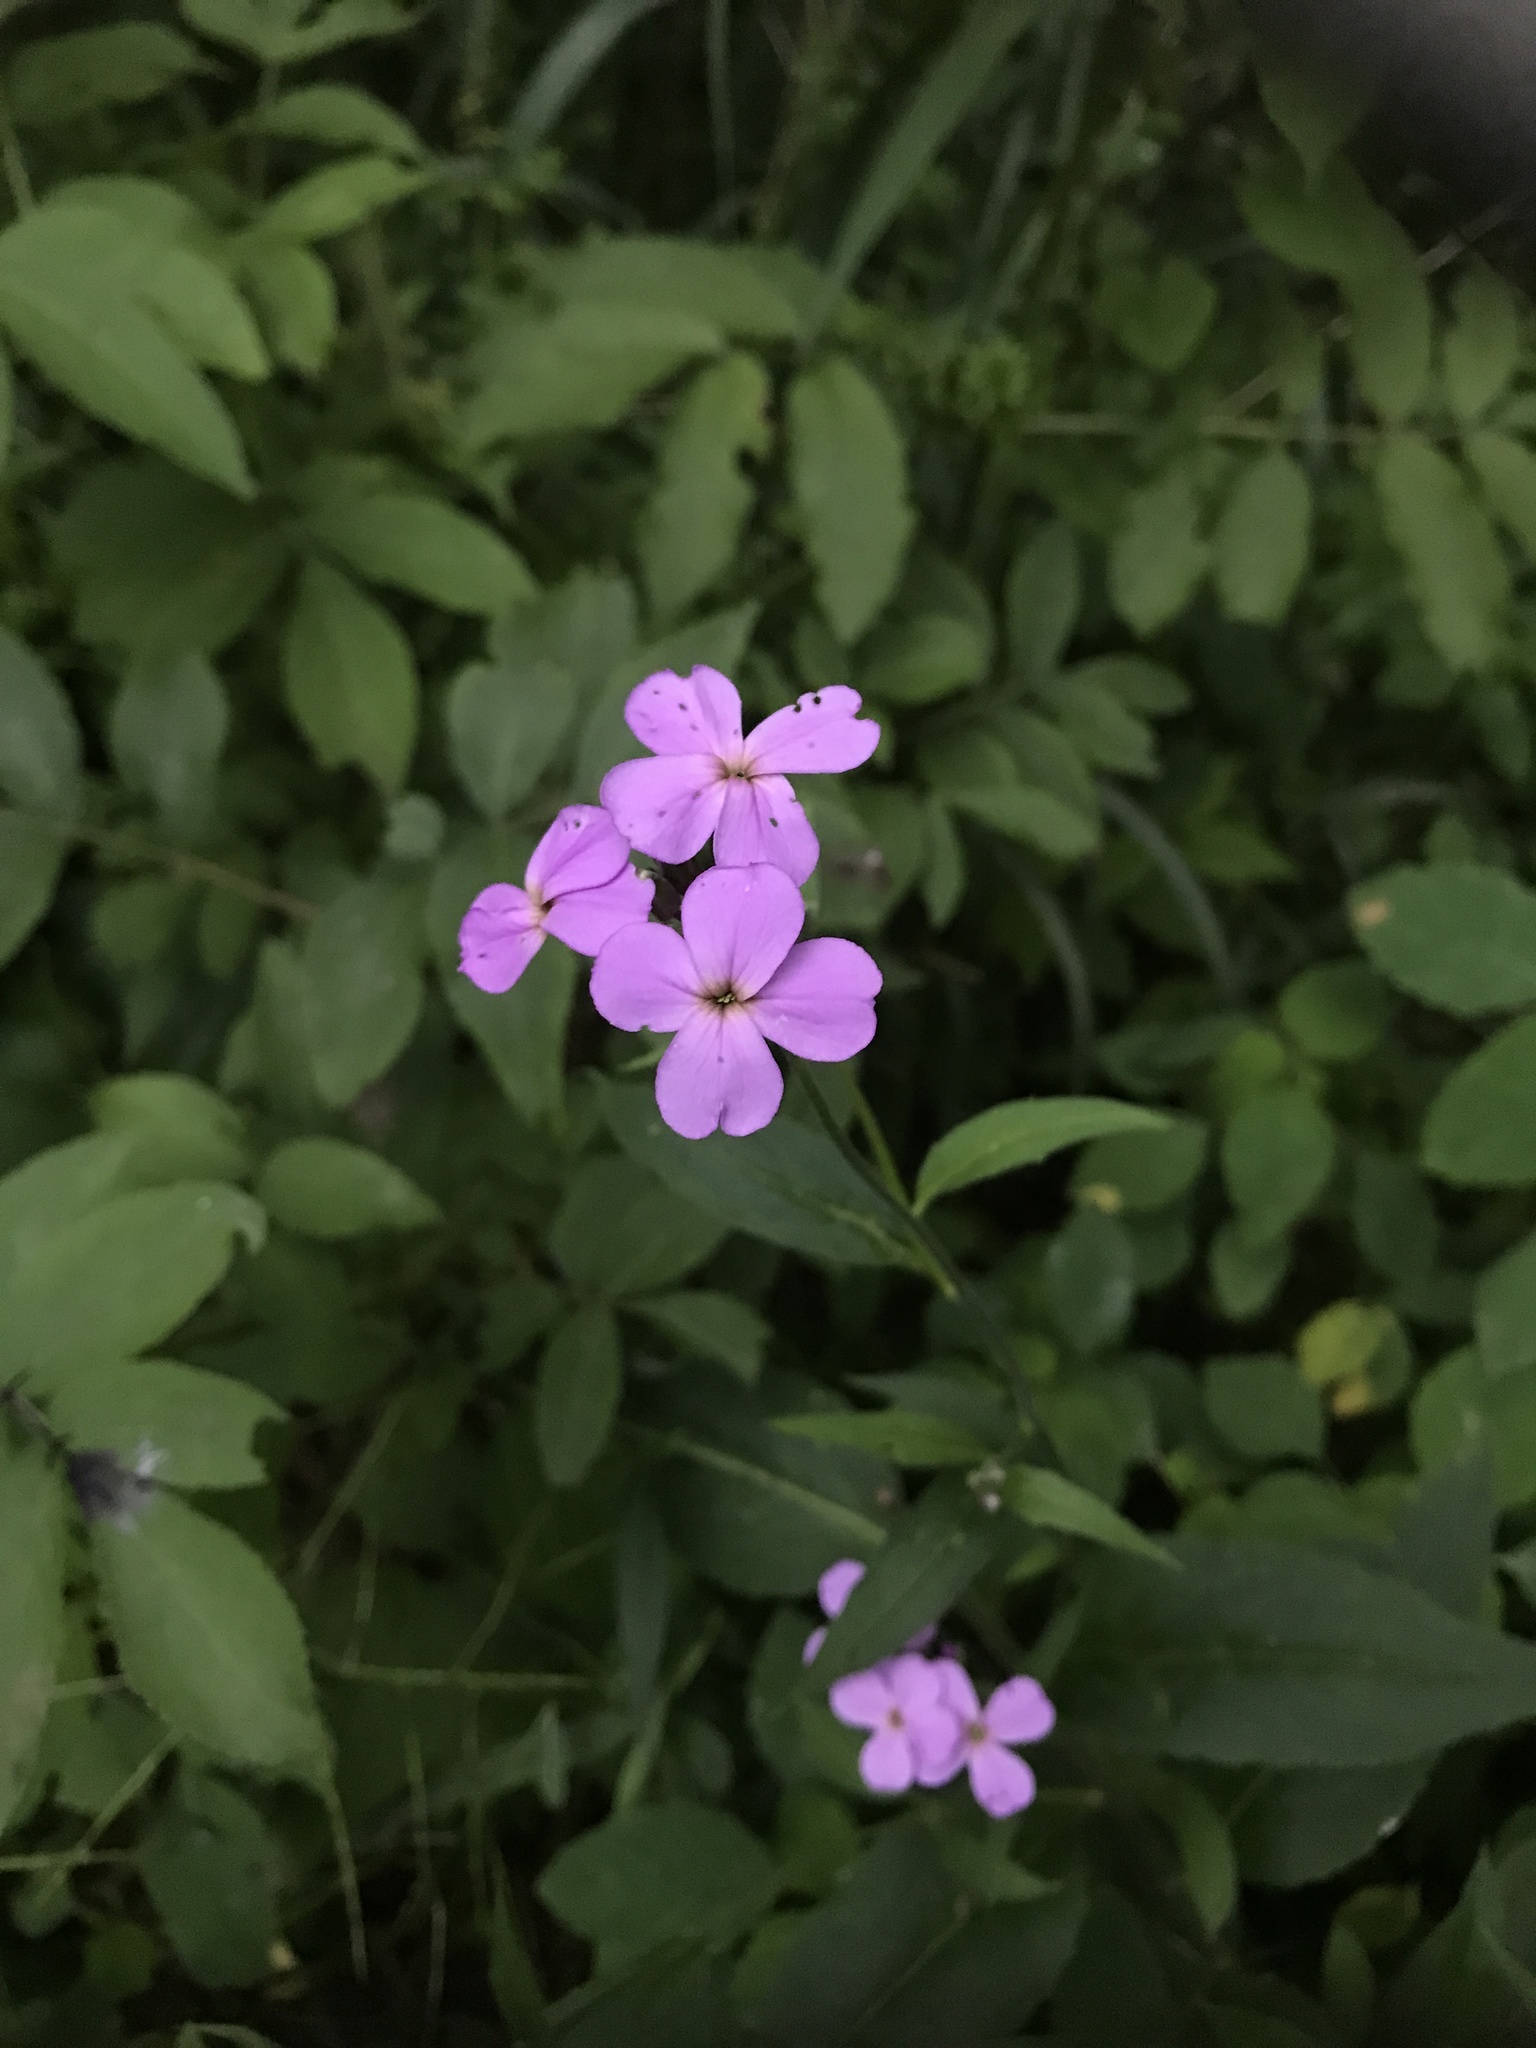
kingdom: Plantae
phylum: Tracheophyta
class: Magnoliopsida
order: Brassicales
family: Brassicaceae
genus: Hesperis
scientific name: Hesperis matronalis
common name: Dame's-violet
